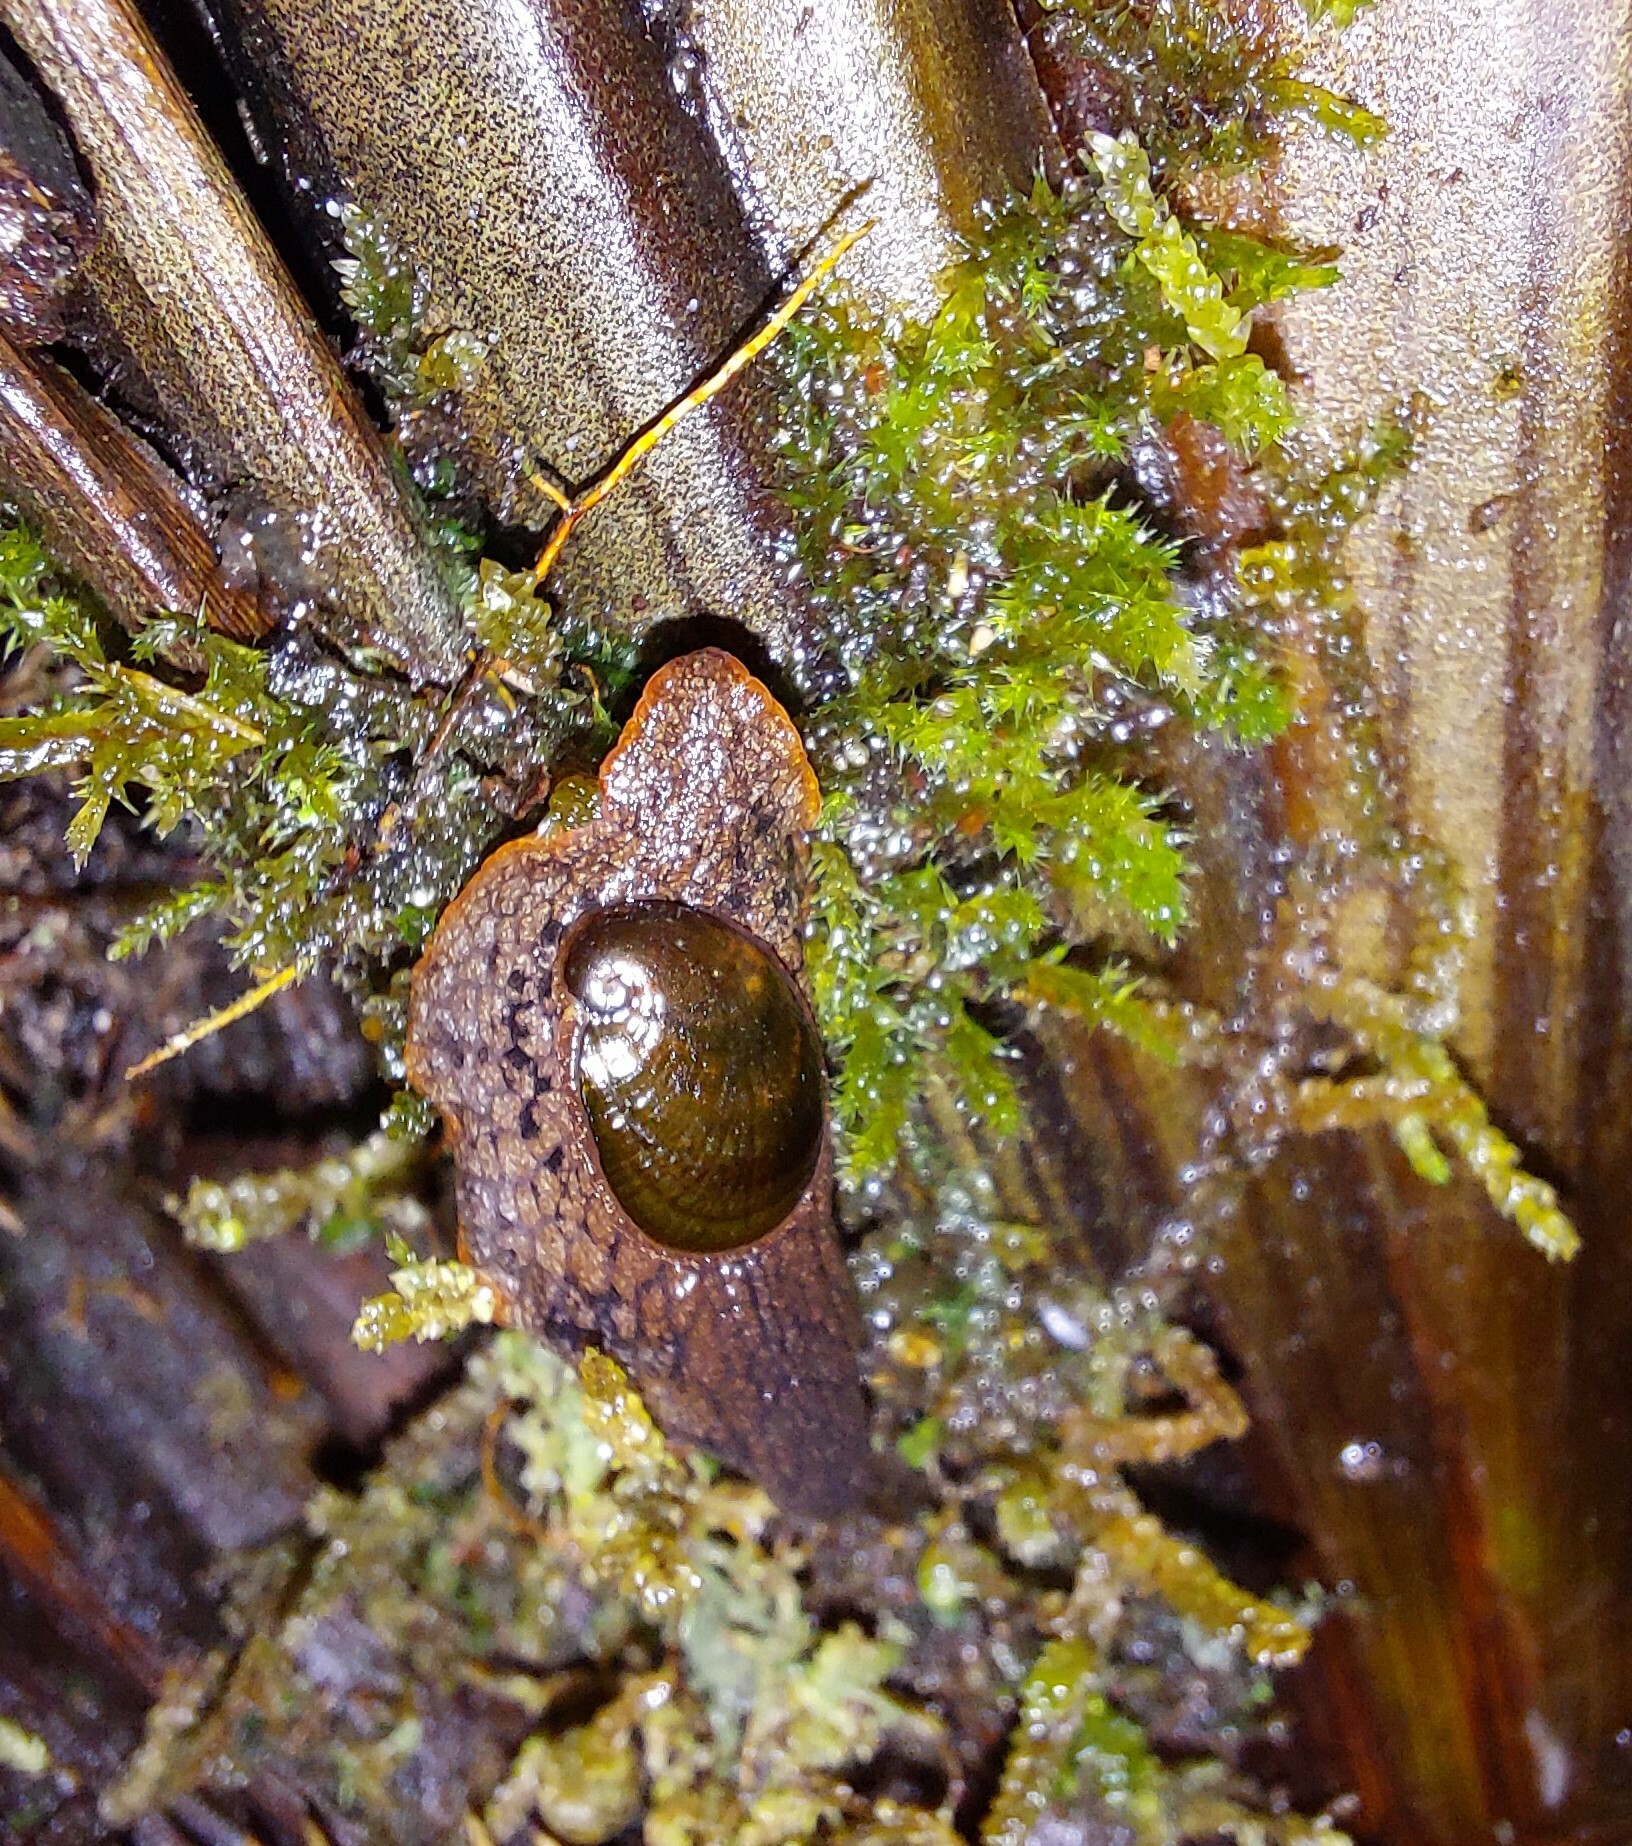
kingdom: Animalia
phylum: Mollusca
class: Gastropoda
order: Stylommatophora
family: Rhytididae
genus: Schizoglossa
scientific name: Schizoglossa novoseelandica
